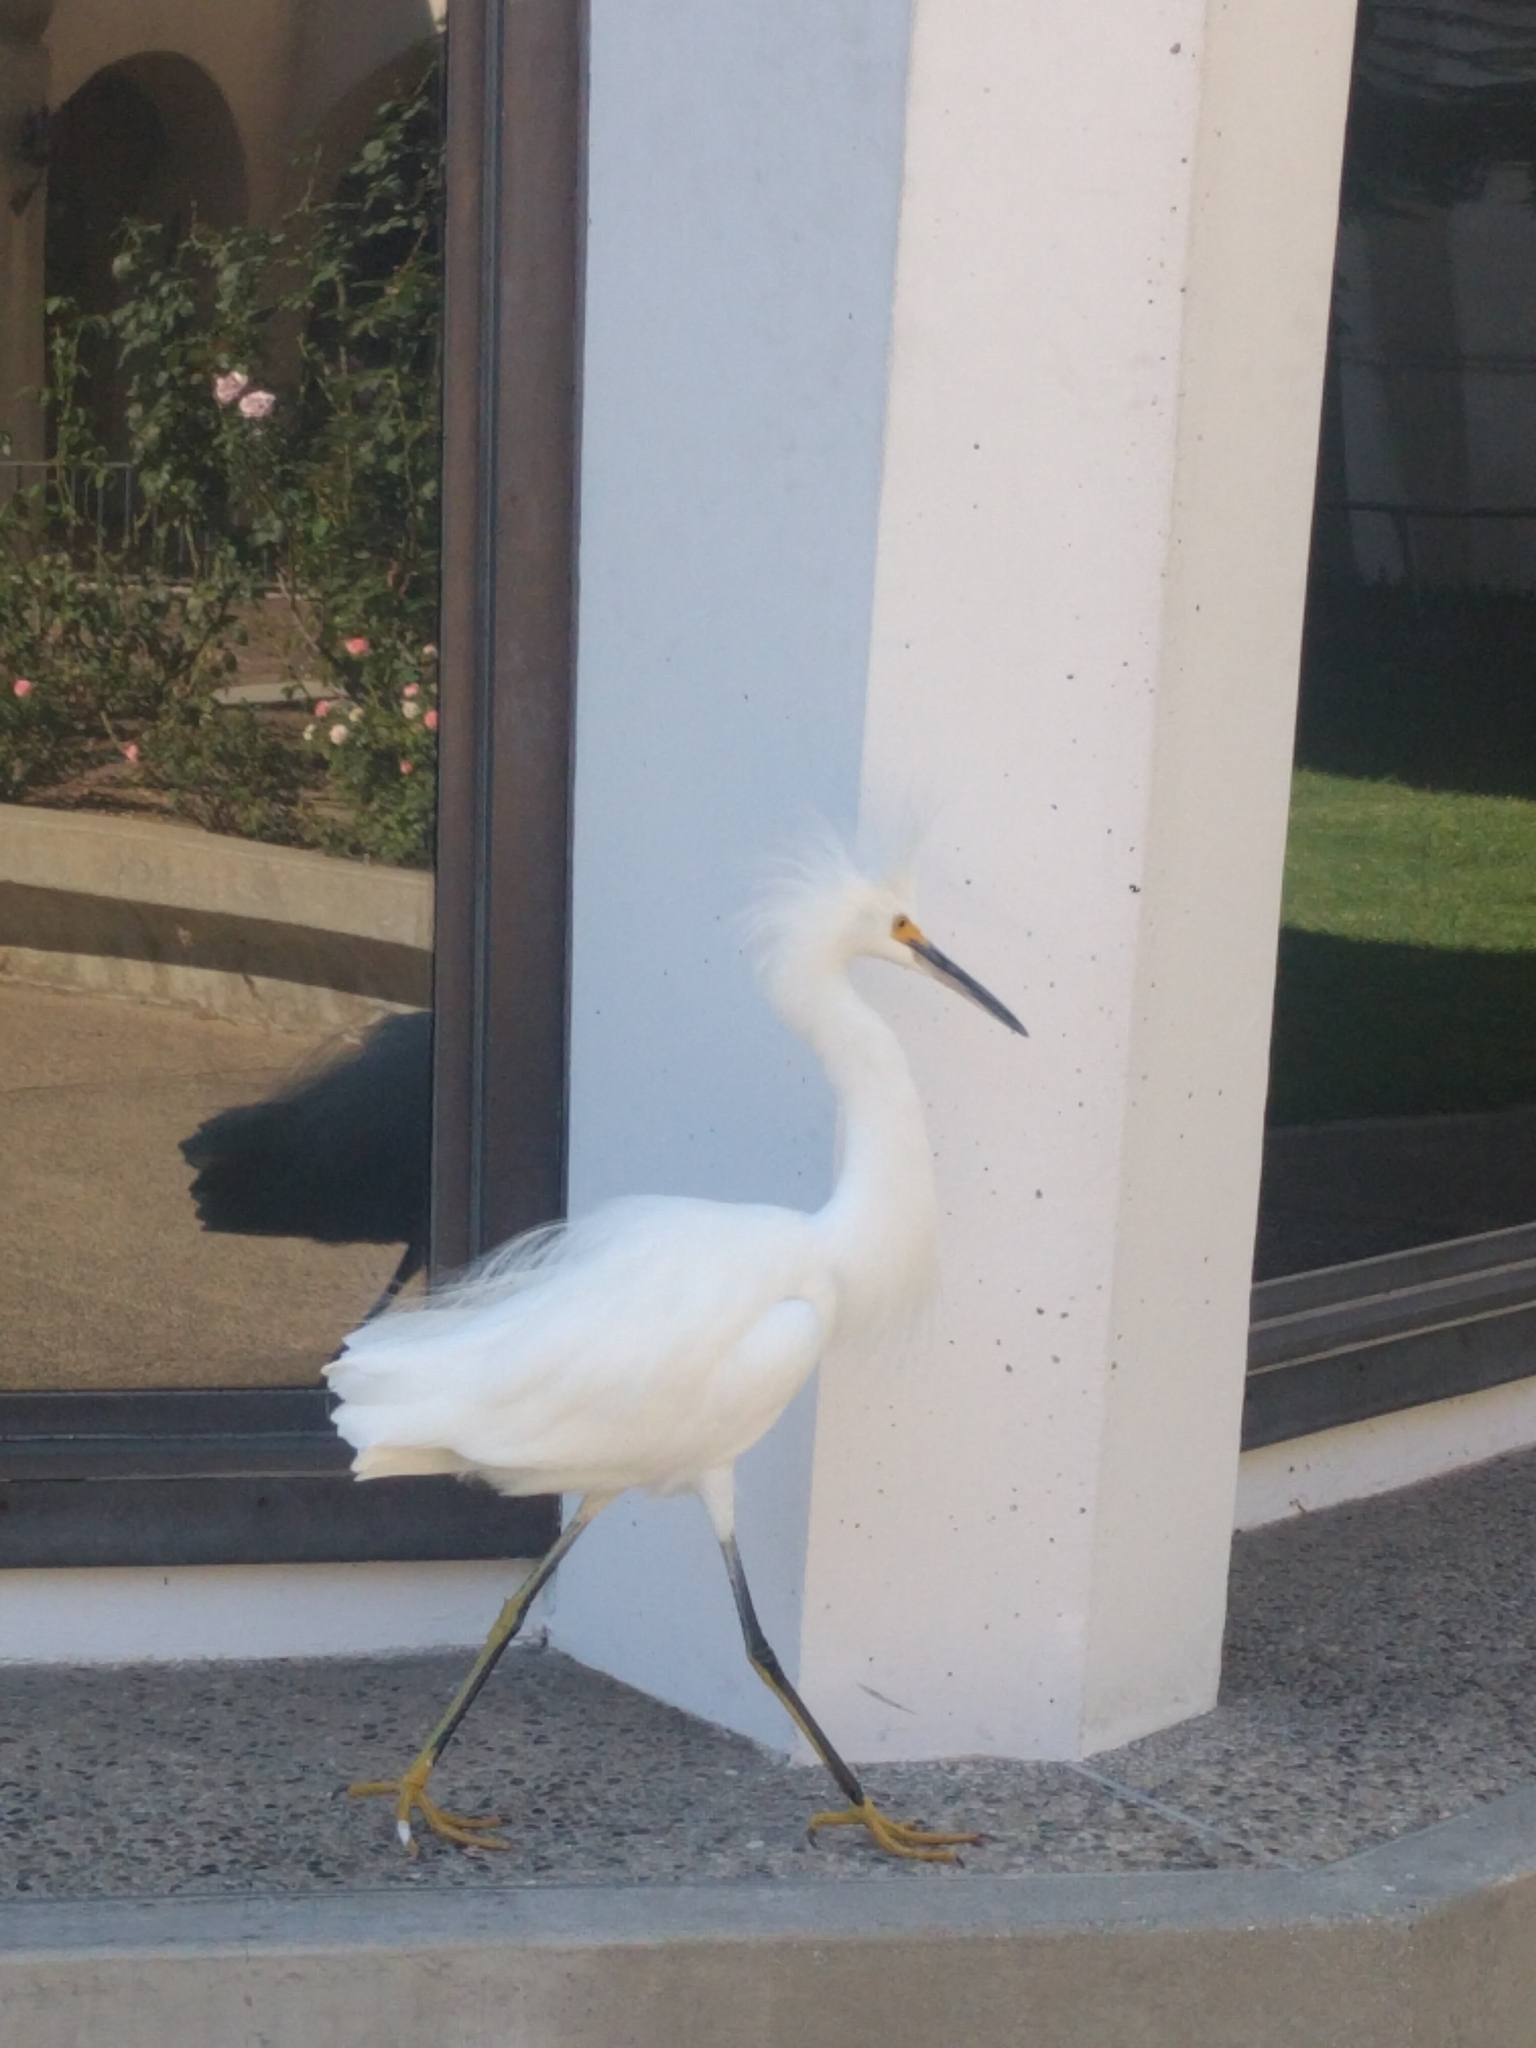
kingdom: Animalia
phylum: Chordata
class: Aves
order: Pelecaniformes
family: Ardeidae
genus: Egretta
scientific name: Egretta thula
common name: Snowy egret
